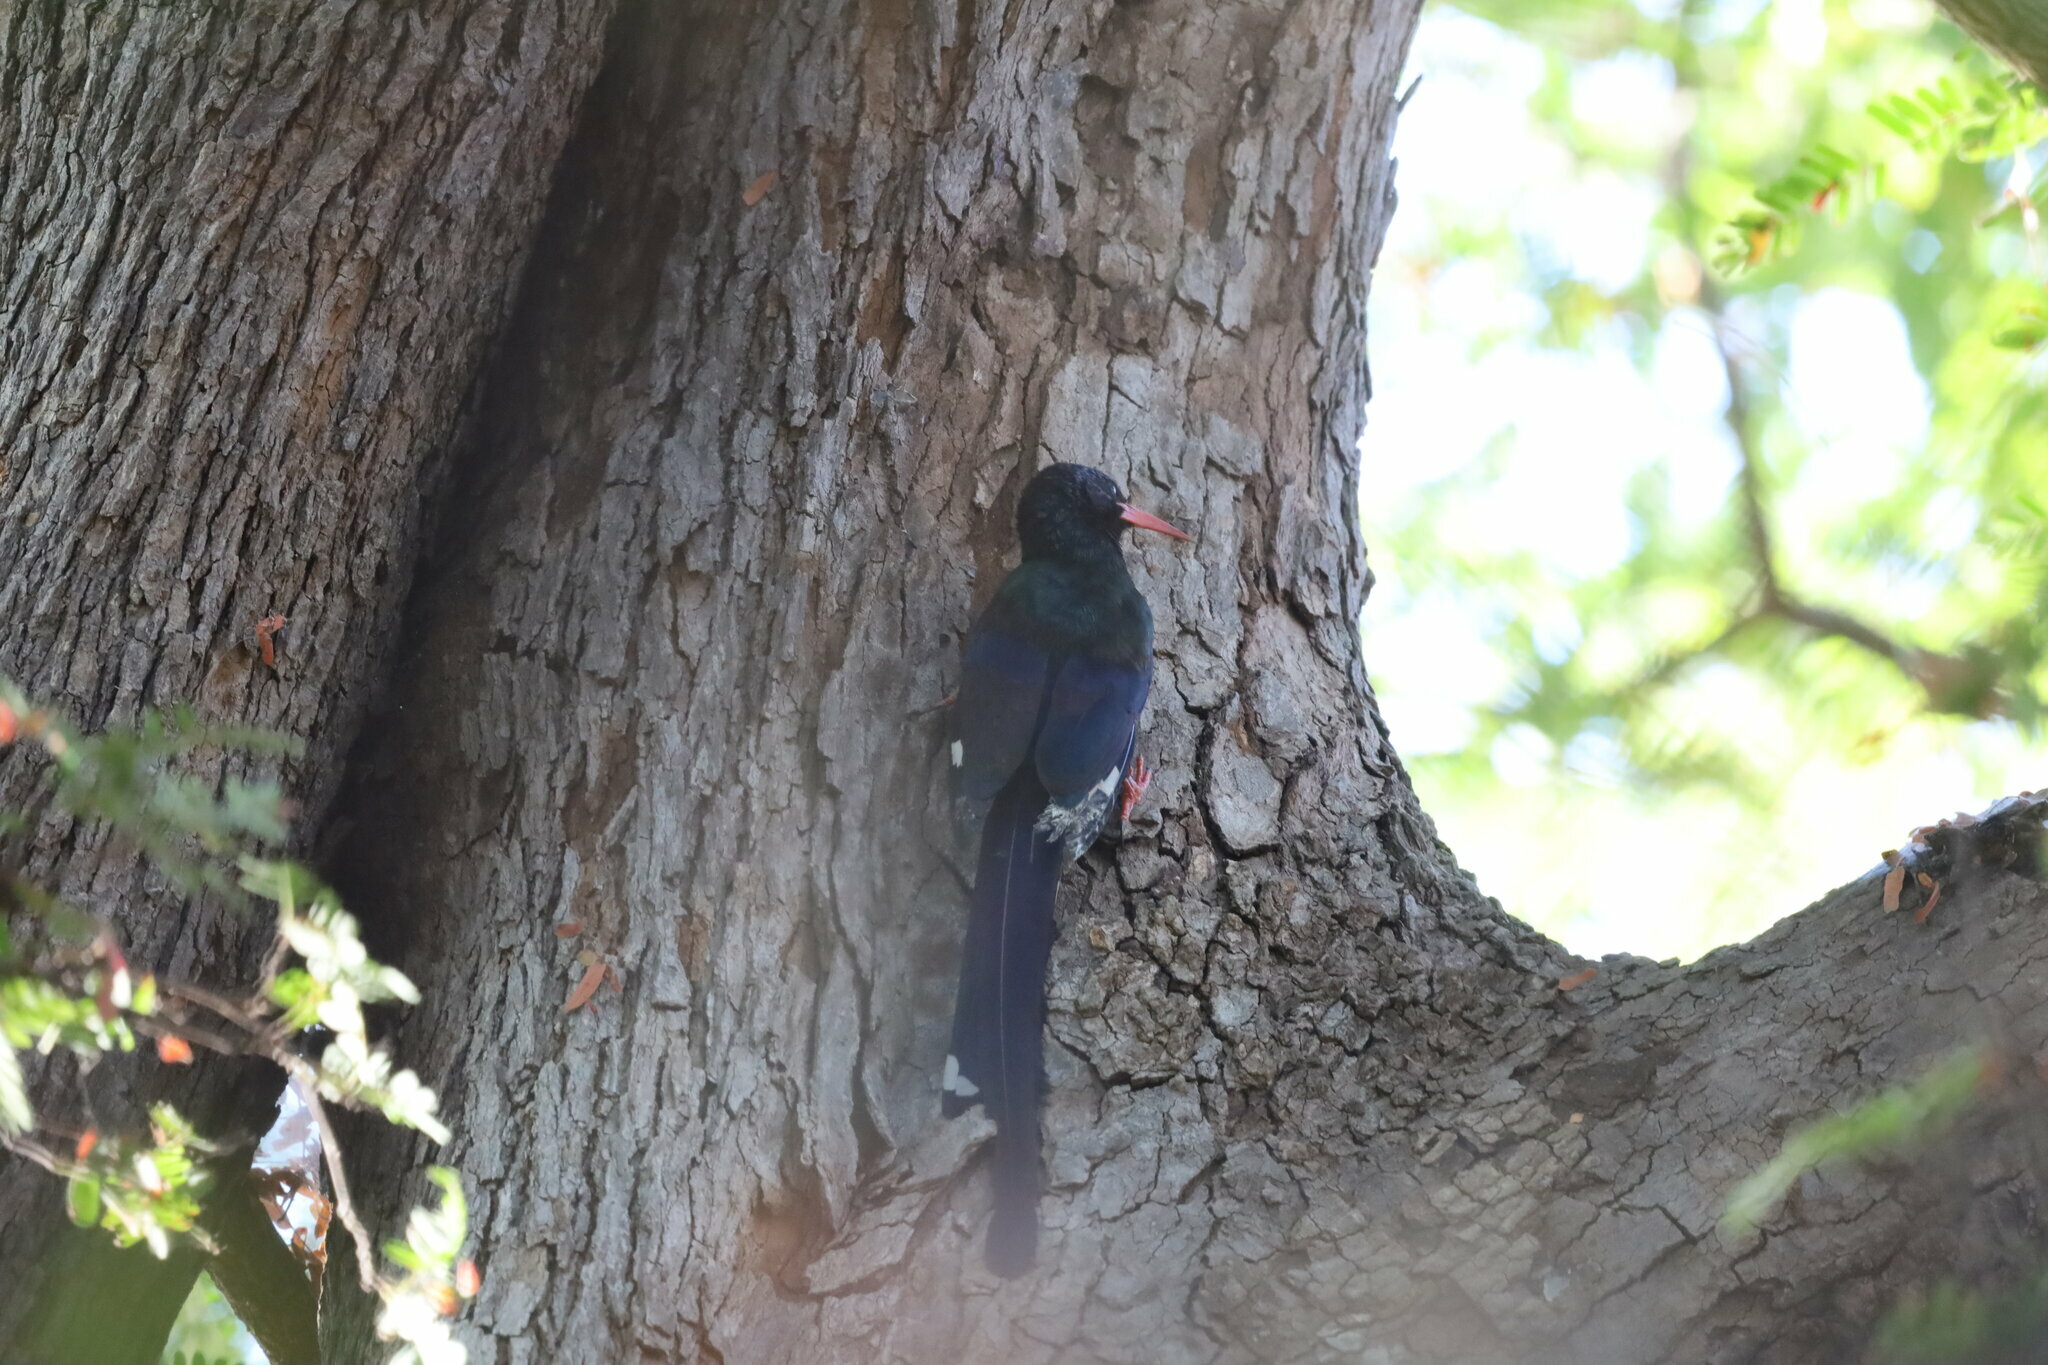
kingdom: Animalia
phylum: Chordata
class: Aves
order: Bucerotiformes
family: Phoeniculidae
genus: Phoeniculus
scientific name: Phoeniculus purpureus
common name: Green woodhoopoe
